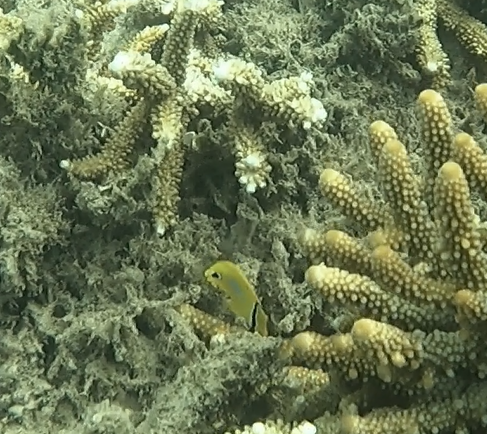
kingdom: Animalia
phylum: Chordata
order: Perciformes
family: Chaetodontidae
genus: Chaetodon
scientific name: Chaetodon plebeius
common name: Bluespot butterflyfish
